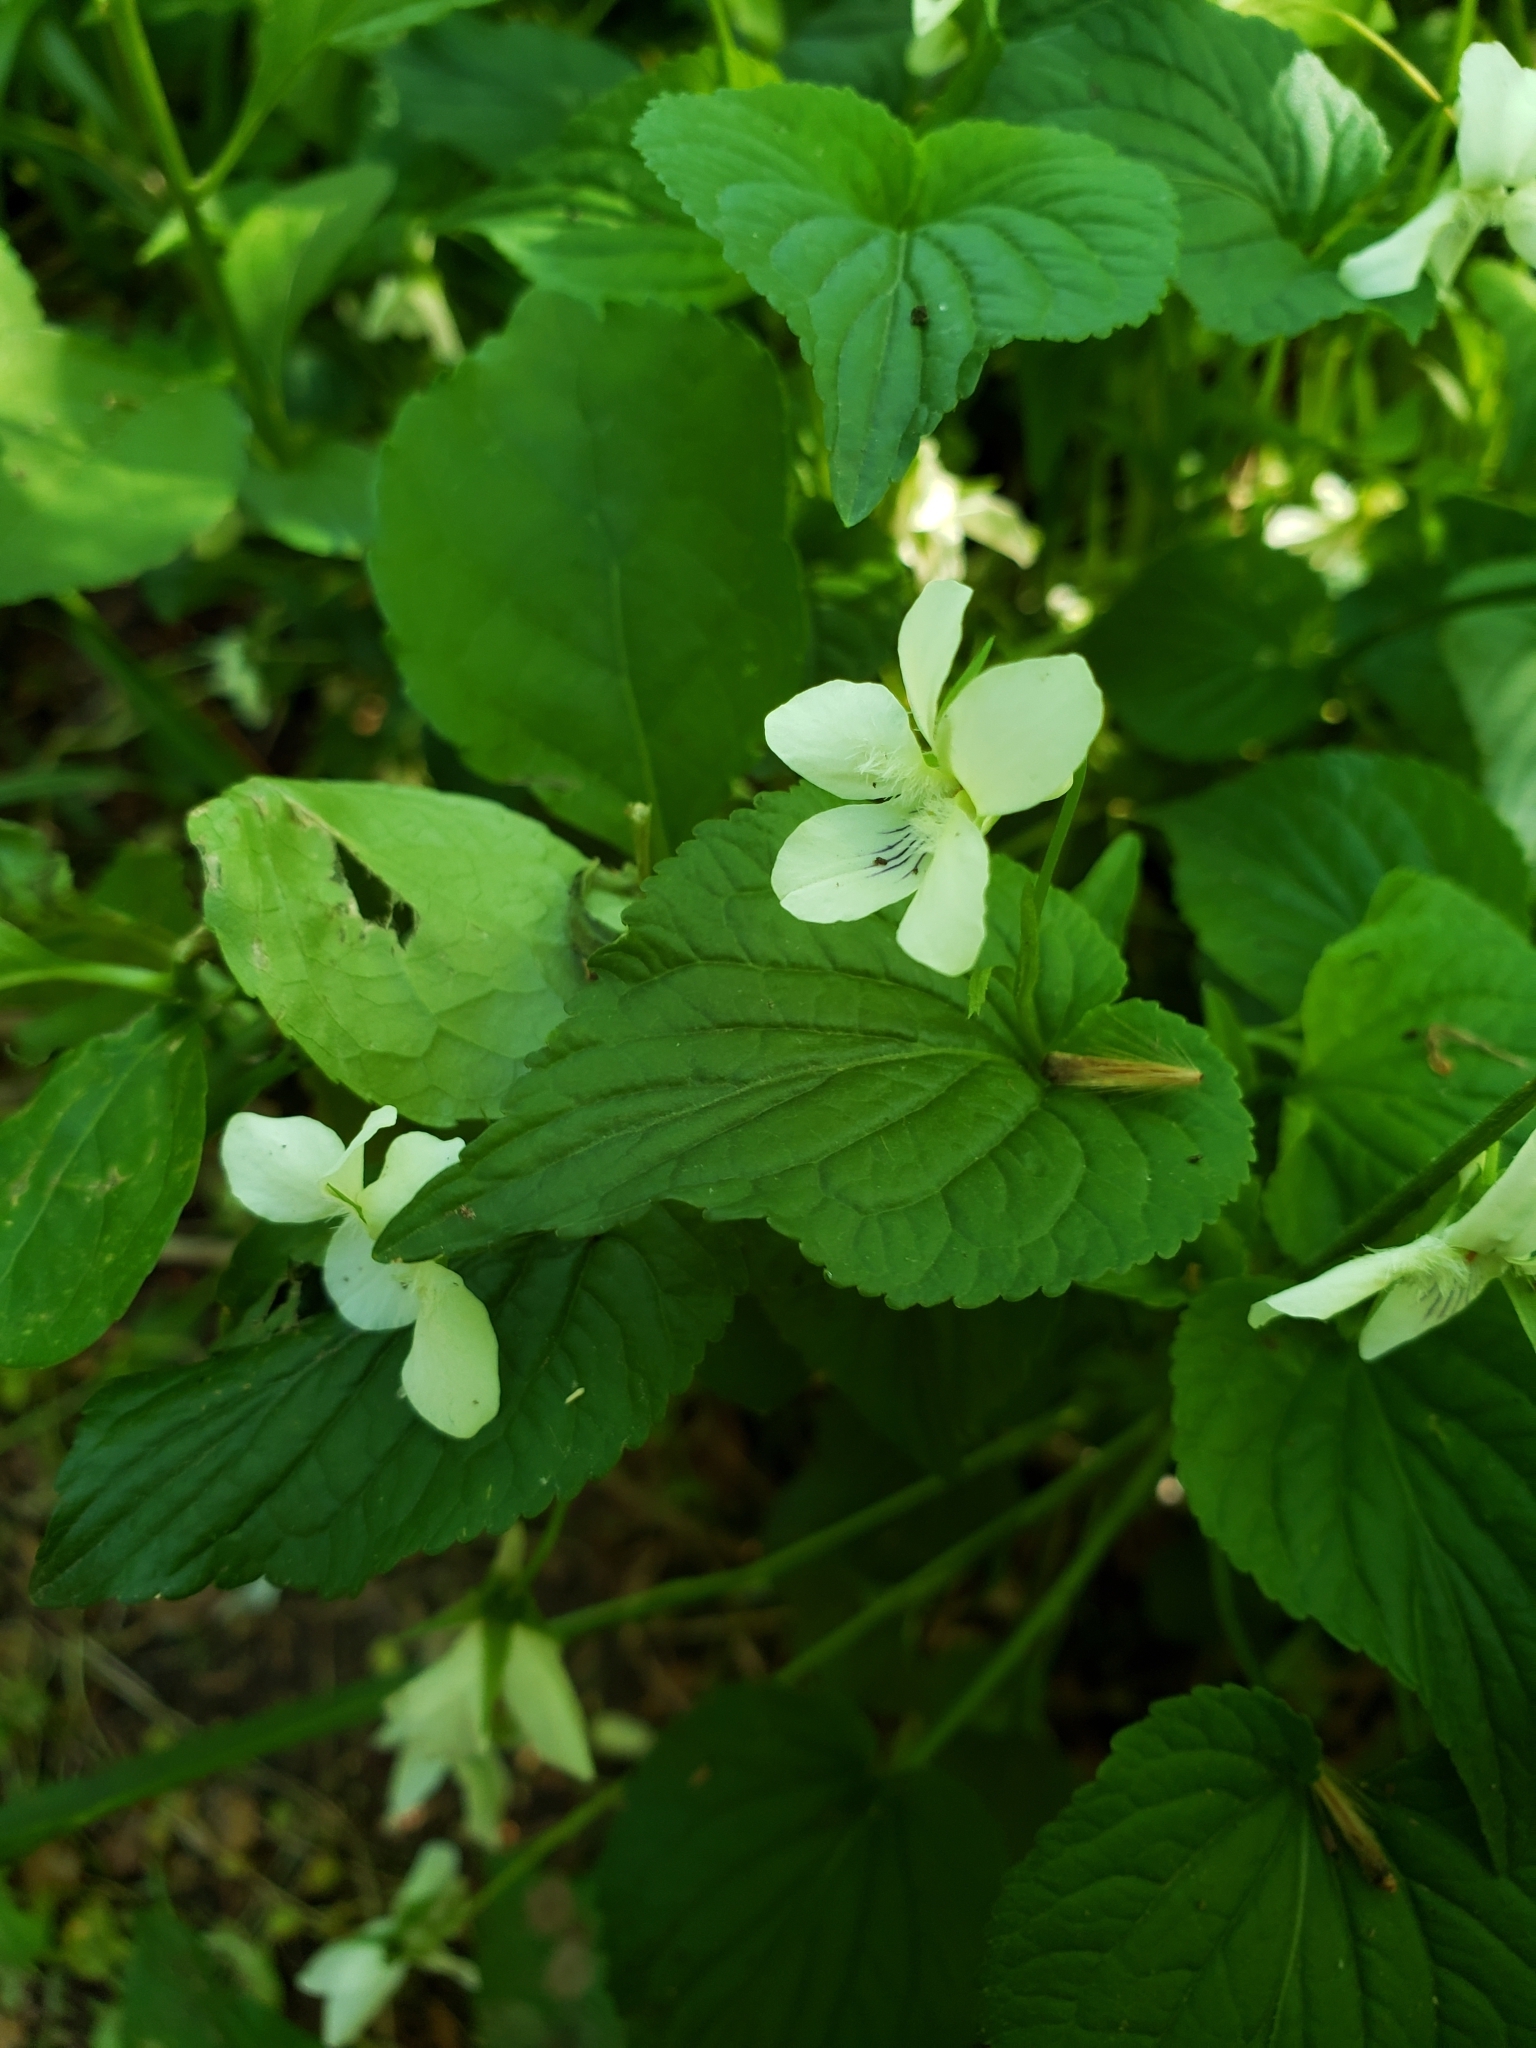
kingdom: Plantae
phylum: Tracheophyta
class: Magnoliopsida
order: Malpighiales
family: Violaceae
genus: Viola
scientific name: Viola striata
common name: Cream violet
